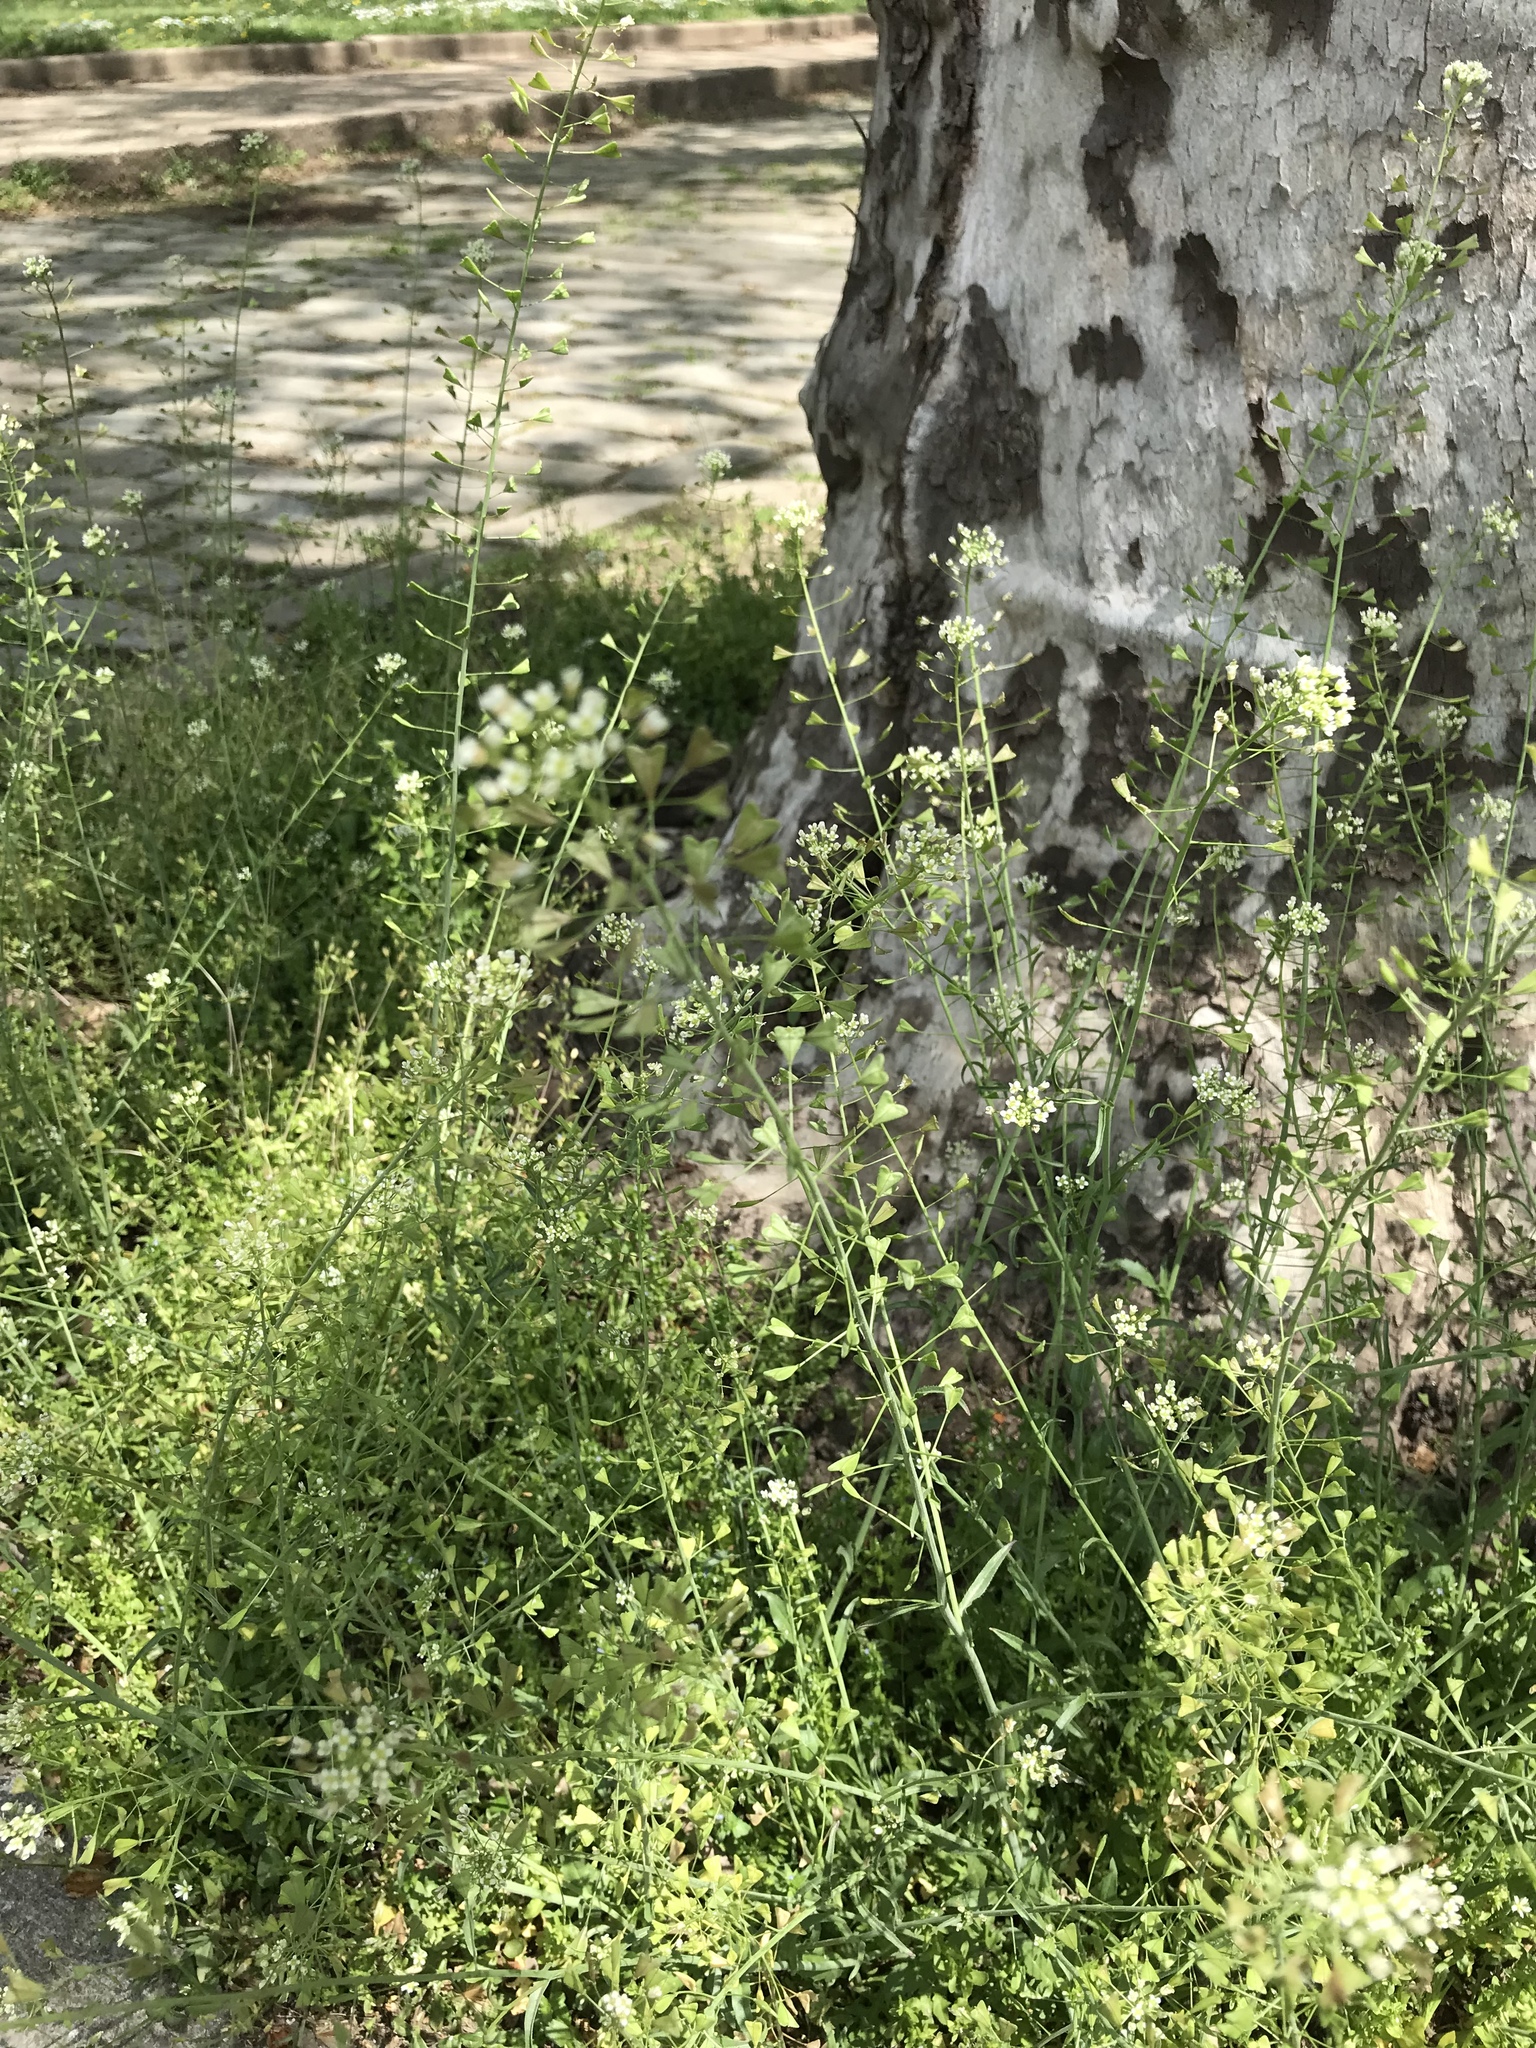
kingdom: Plantae
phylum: Tracheophyta
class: Magnoliopsida
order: Brassicales
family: Brassicaceae
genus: Capsella
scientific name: Capsella bursa-pastoris
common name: Shepherd's purse
